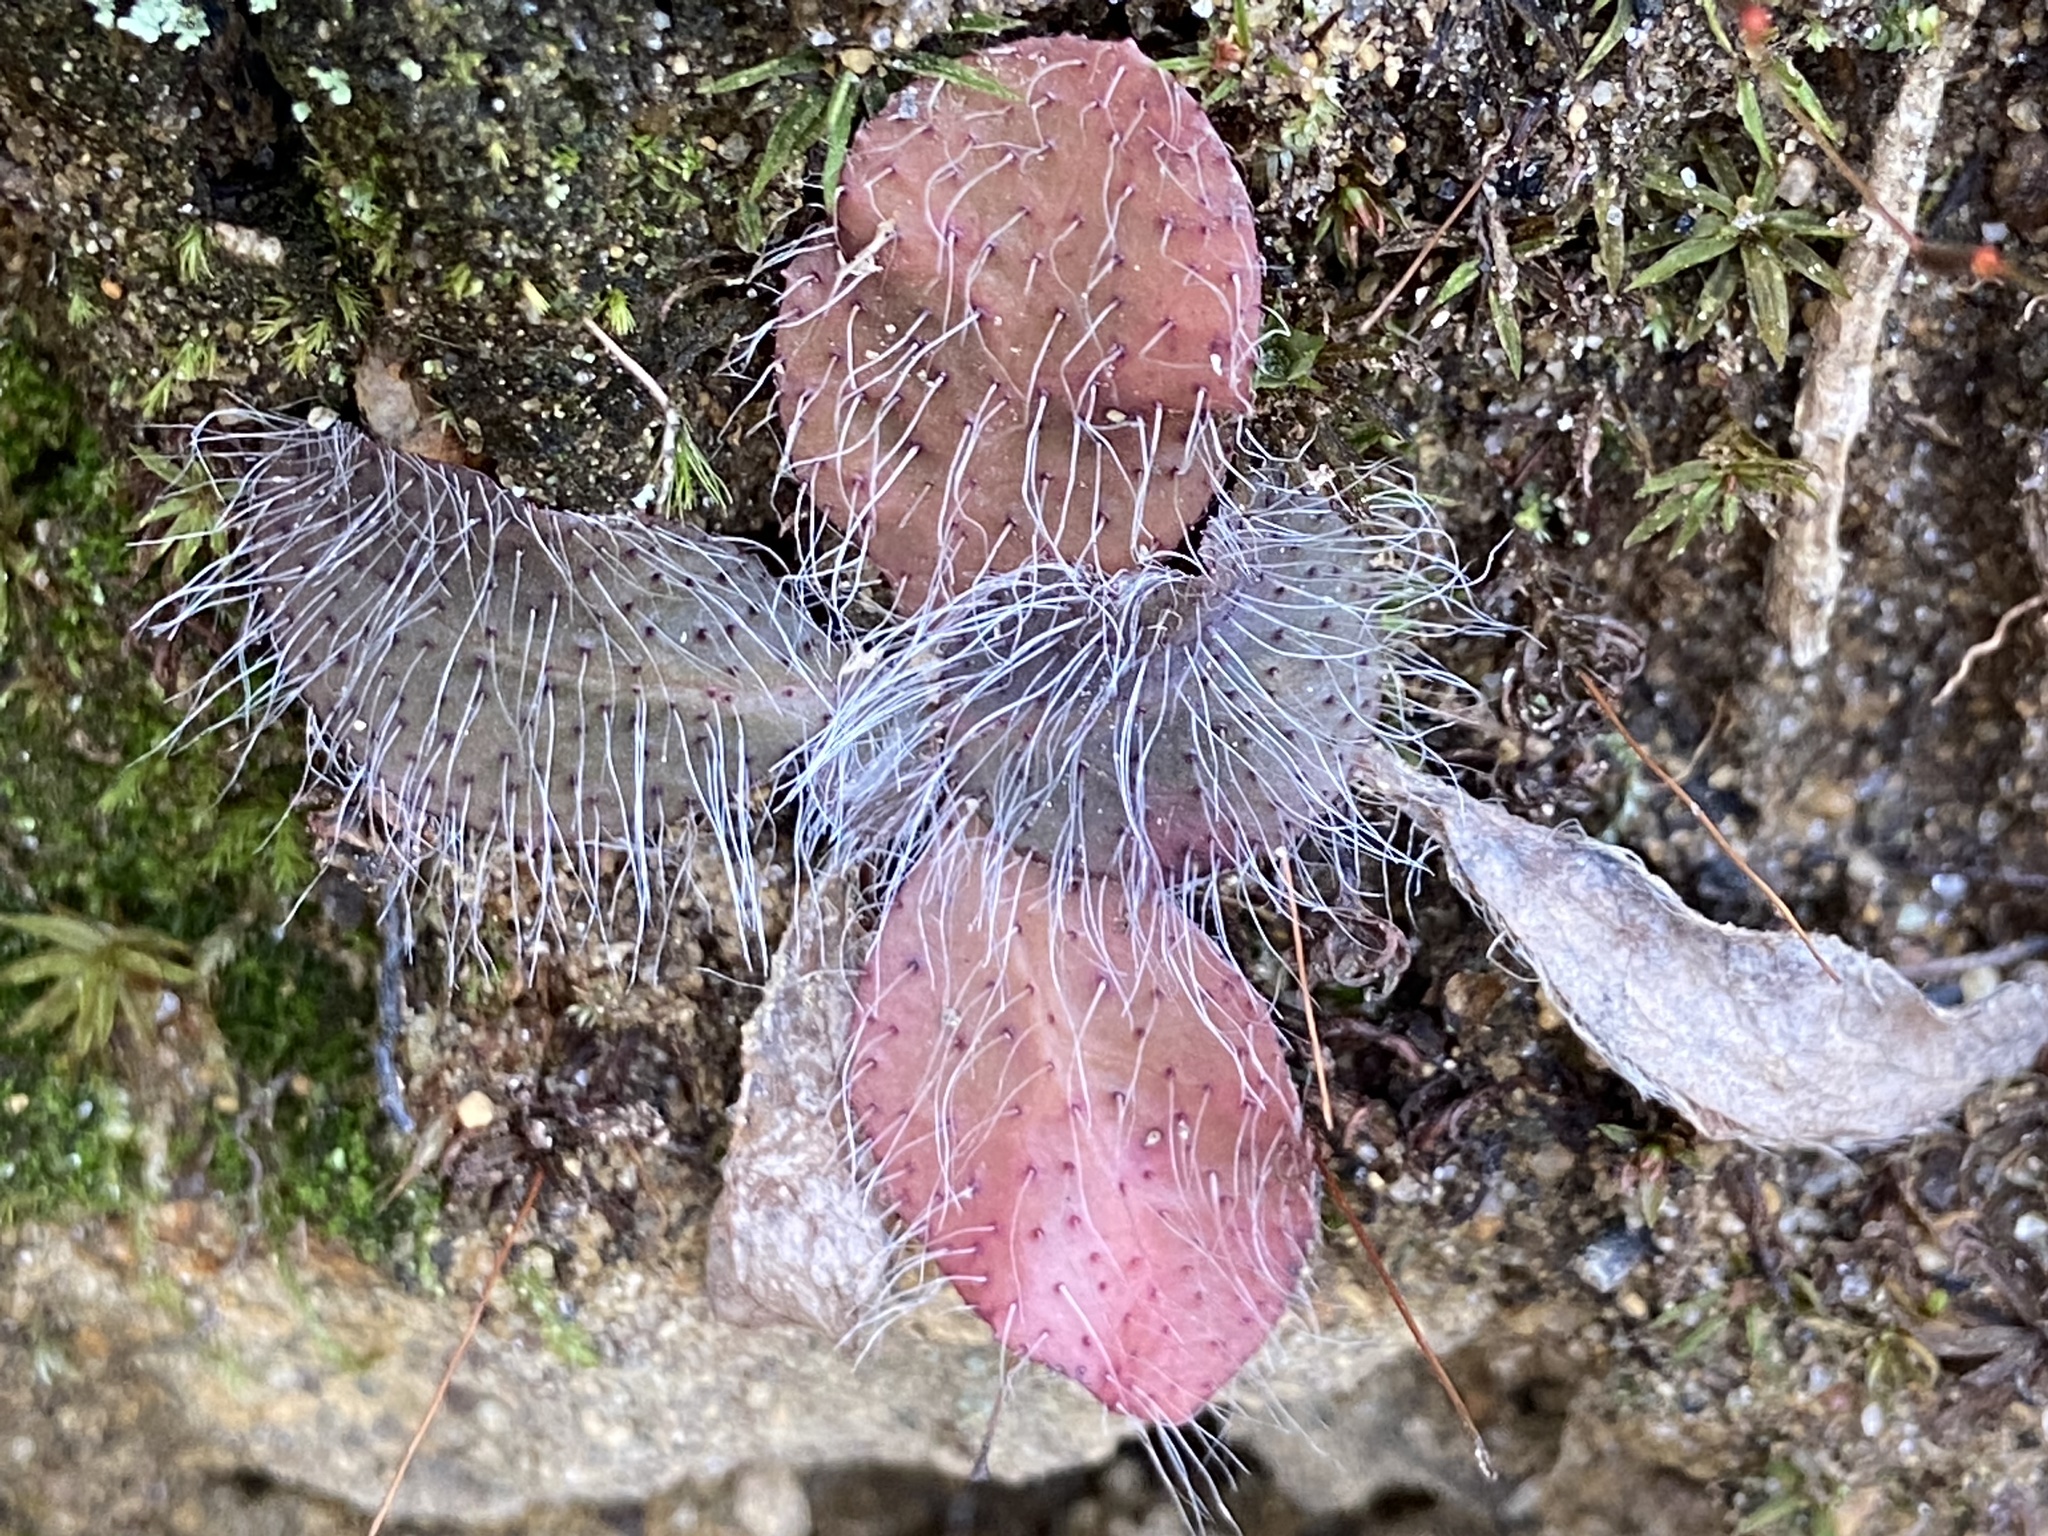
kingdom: Plantae
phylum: Tracheophyta
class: Magnoliopsida
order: Asterales
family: Asteraceae
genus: Pilosella
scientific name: Pilosella officinarum
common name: Mouse-ear hawkweed
